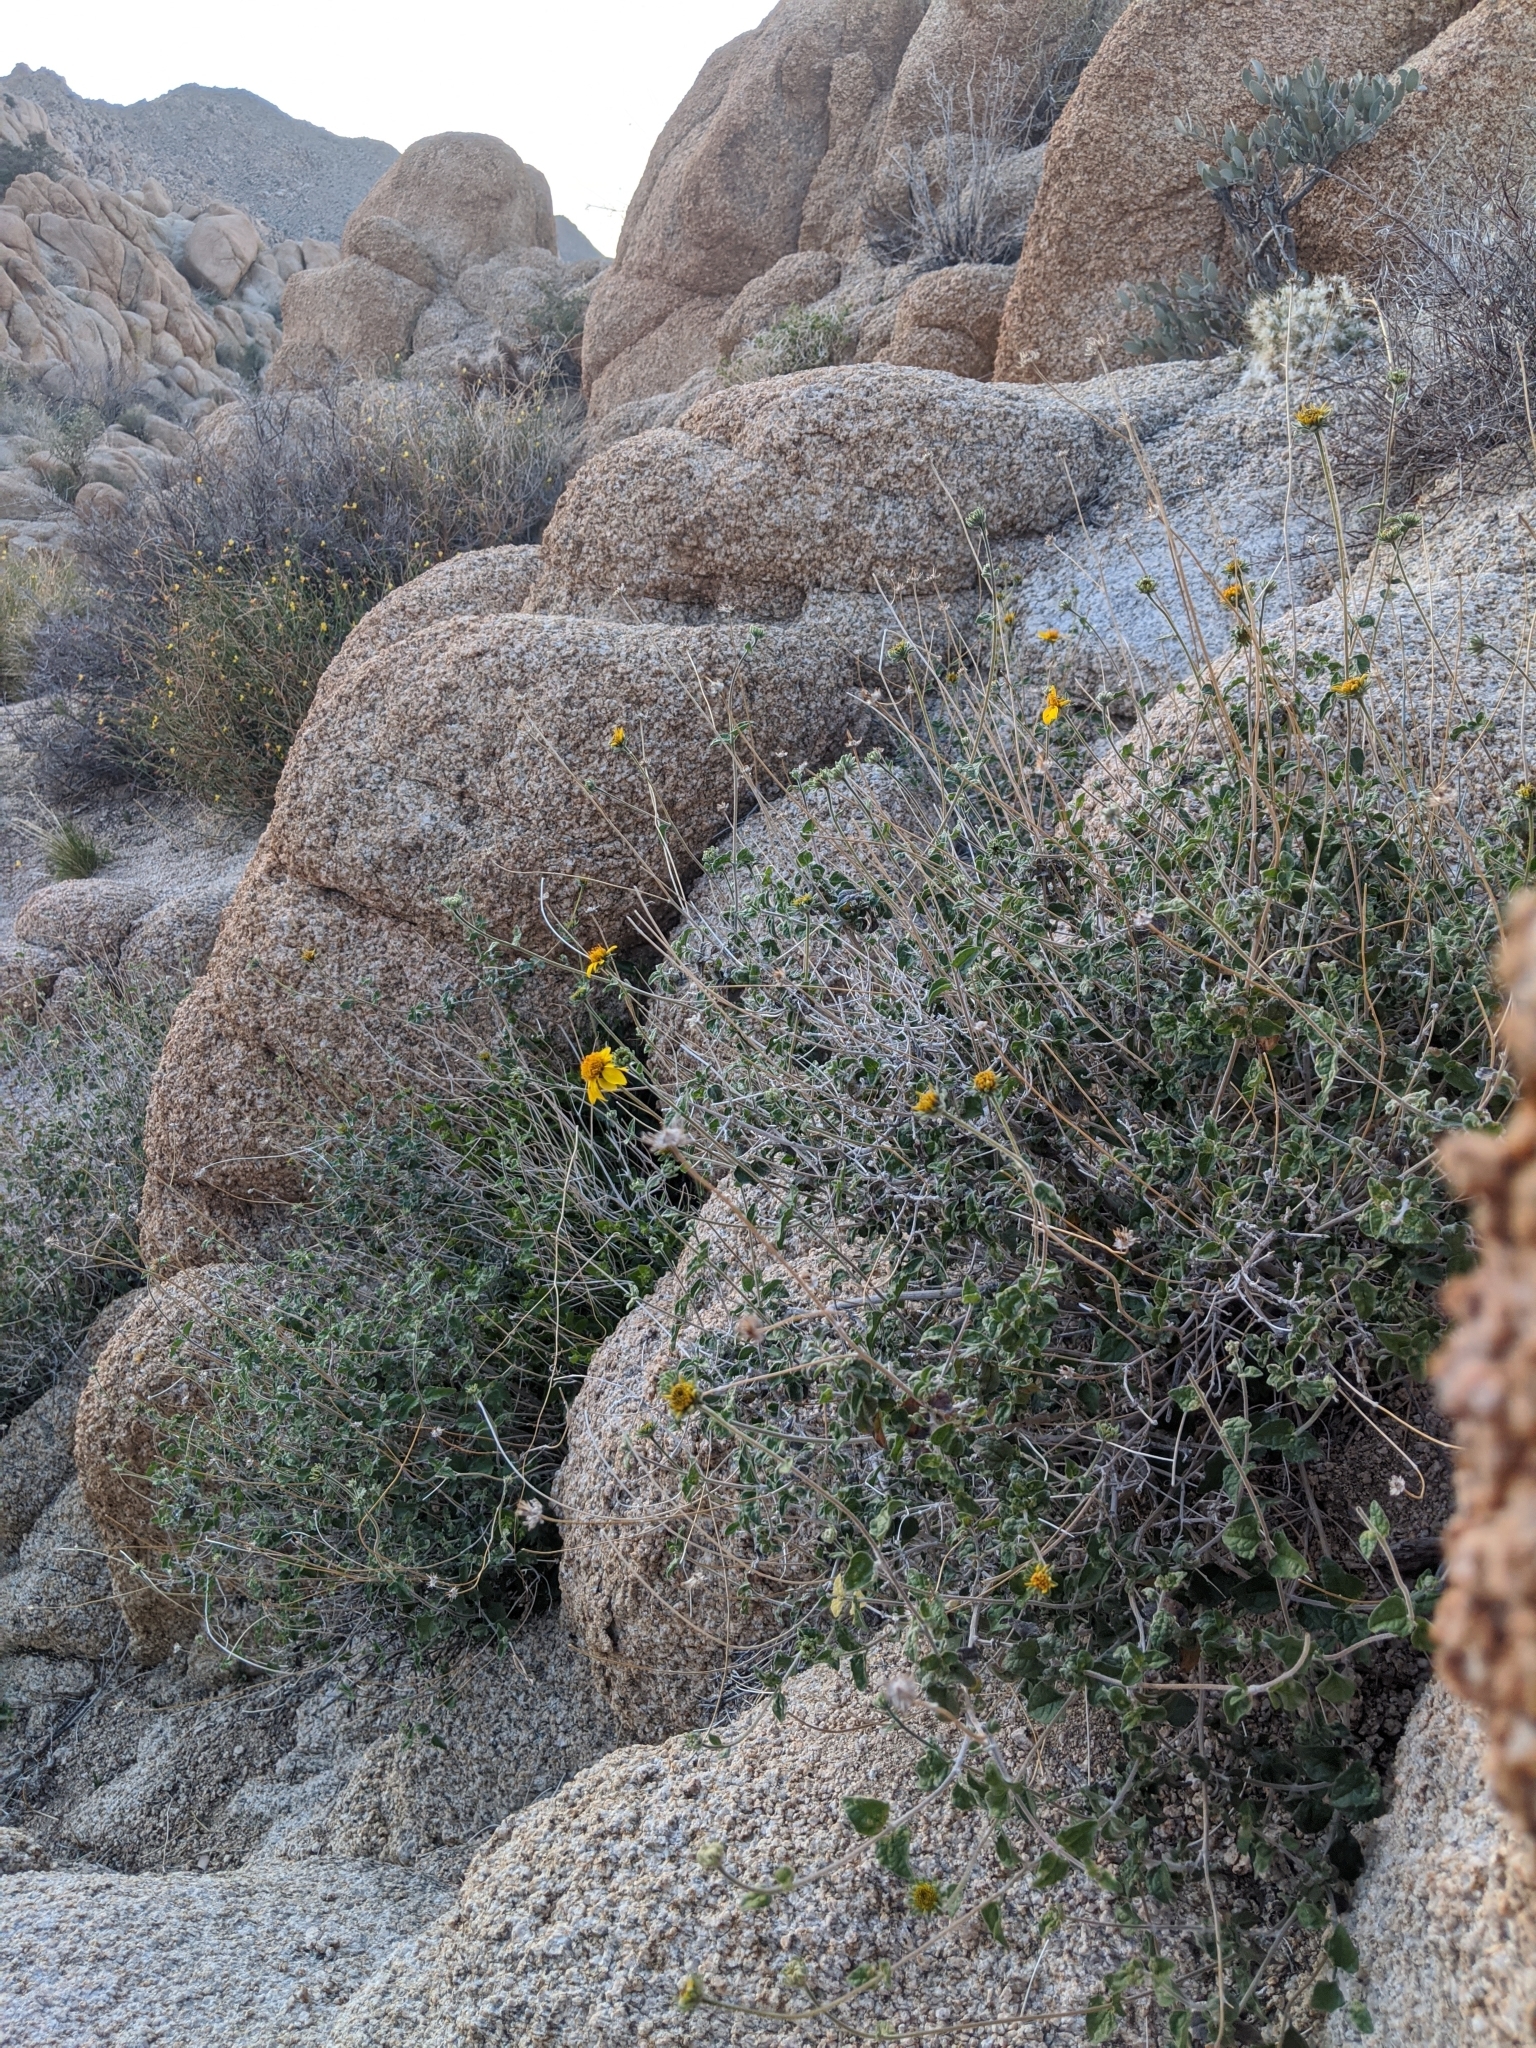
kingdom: Plantae
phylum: Tracheophyta
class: Magnoliopsida
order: Asterales
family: Asteraceae
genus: Bahiopsis
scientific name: Bahiopsis parishii
